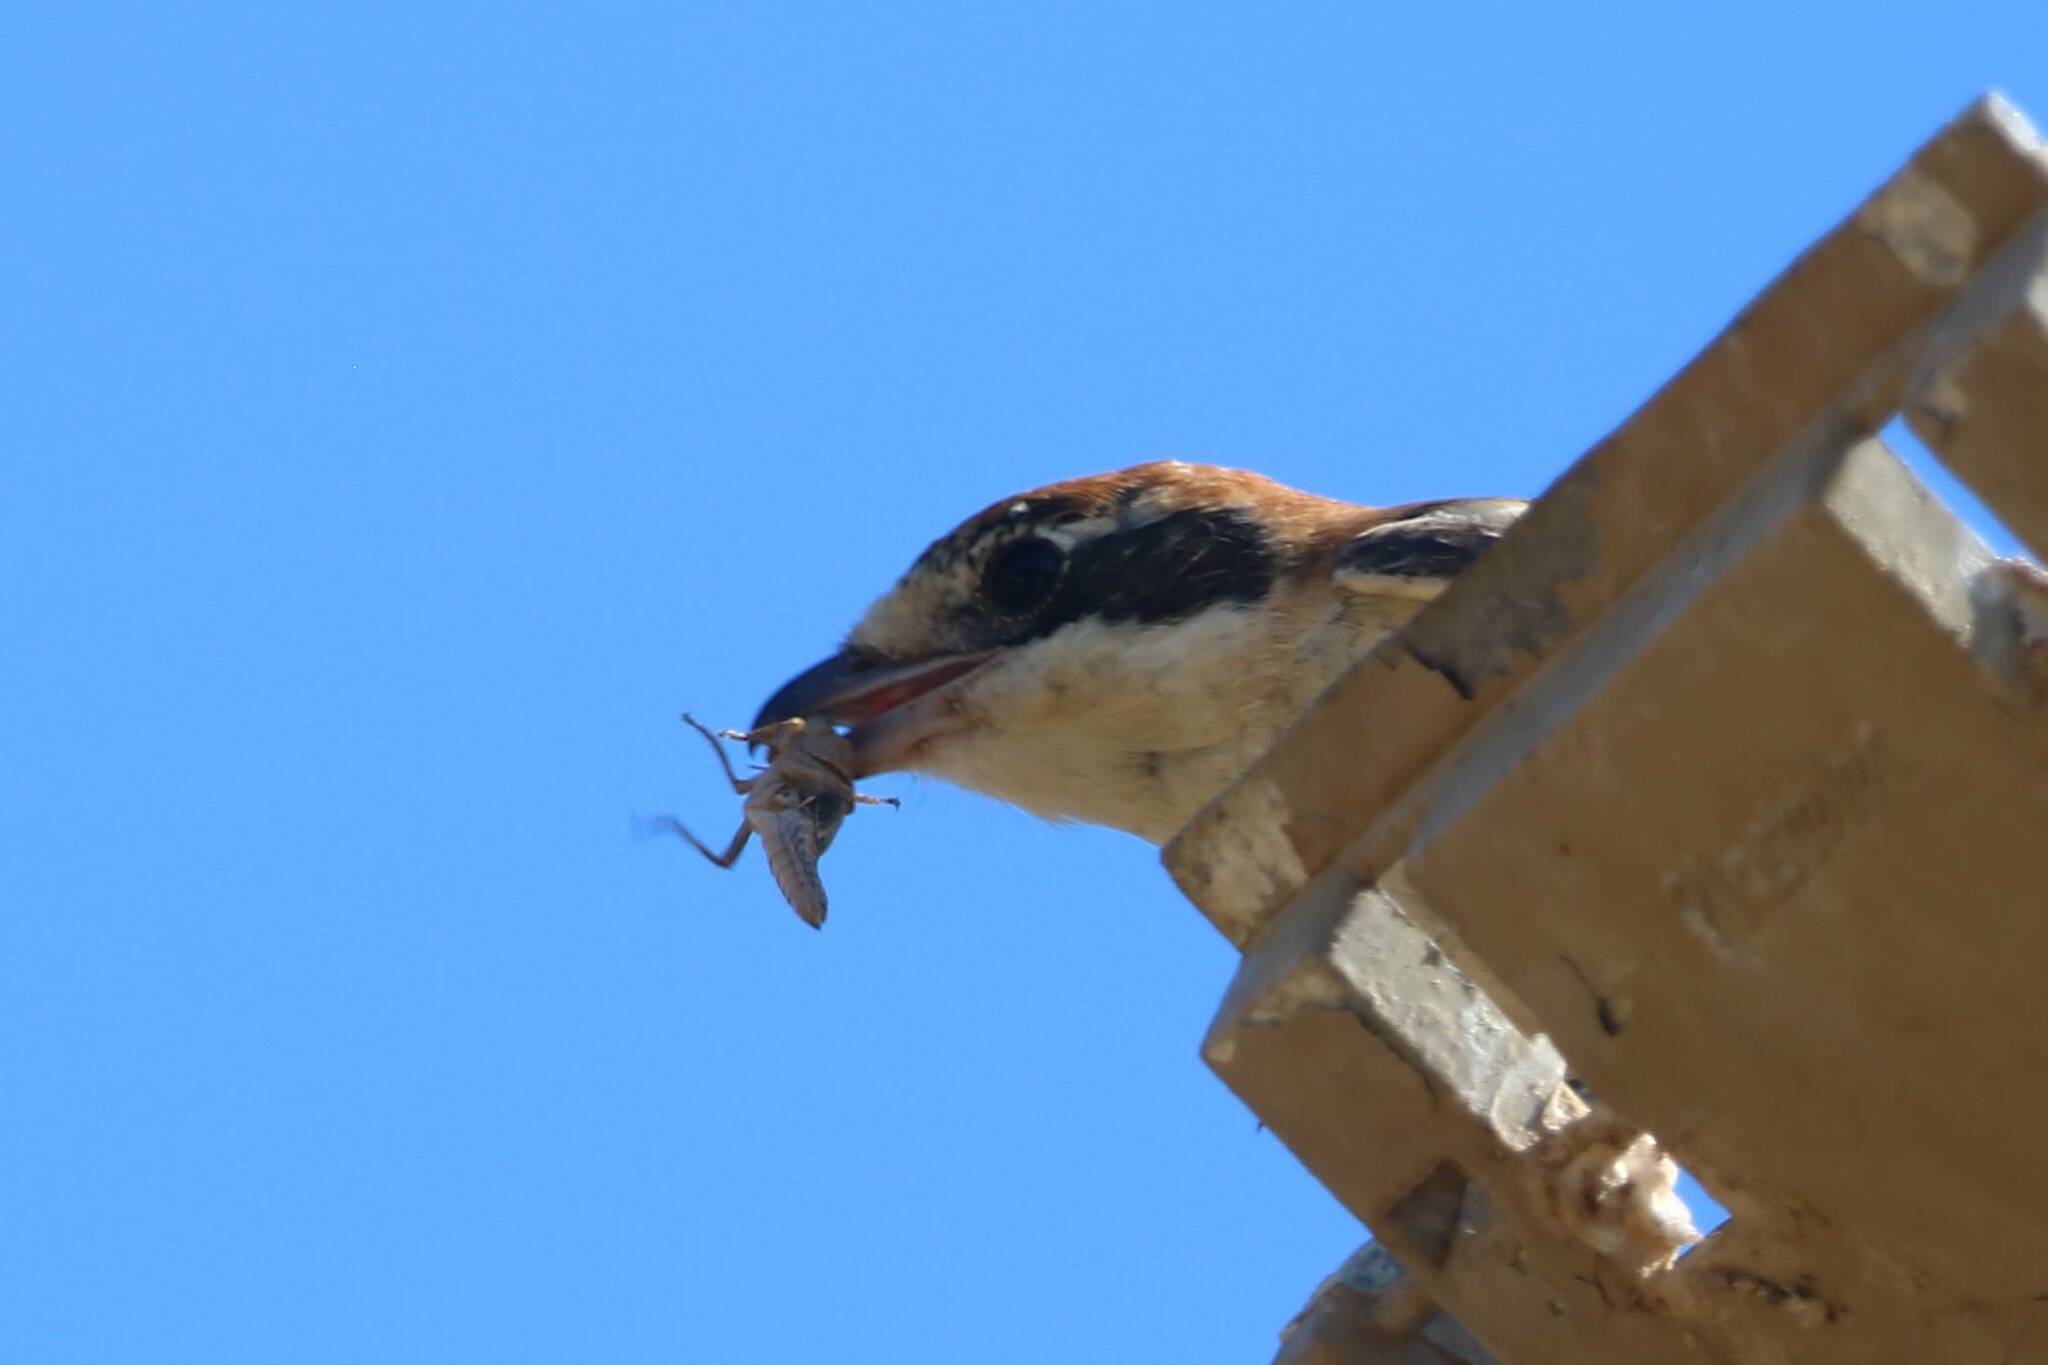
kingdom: Animalia
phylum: Chordata
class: Aves
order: Passeriformes
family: Laniidae
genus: Lanius
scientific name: Lanius senator
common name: Woodchat shrike
